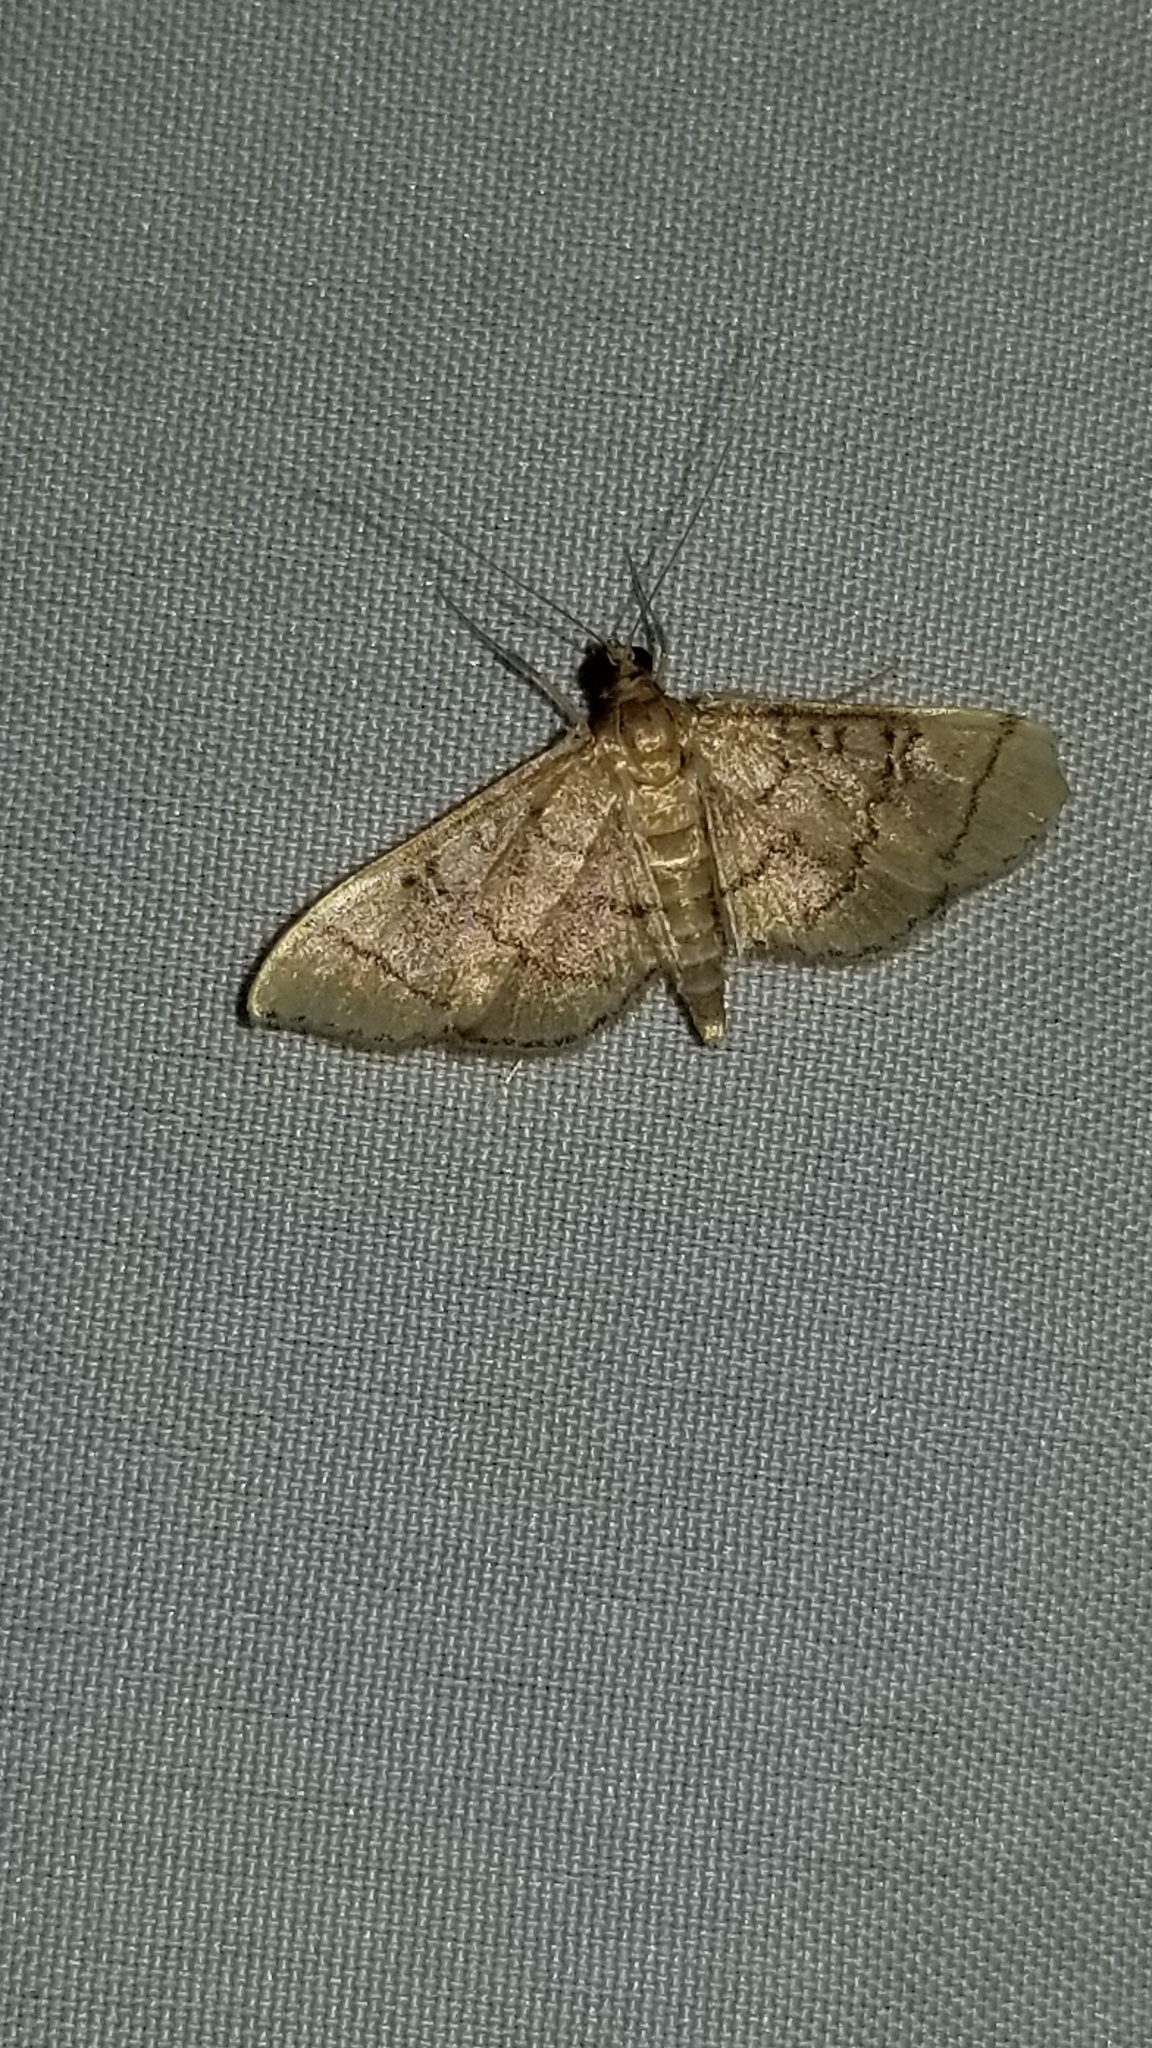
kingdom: Animalia
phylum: Arthropoda
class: Insecta
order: Lepidoptera
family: Crambidae
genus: Lamprosema
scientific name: Lamprosema Blepharomastix ranalis
